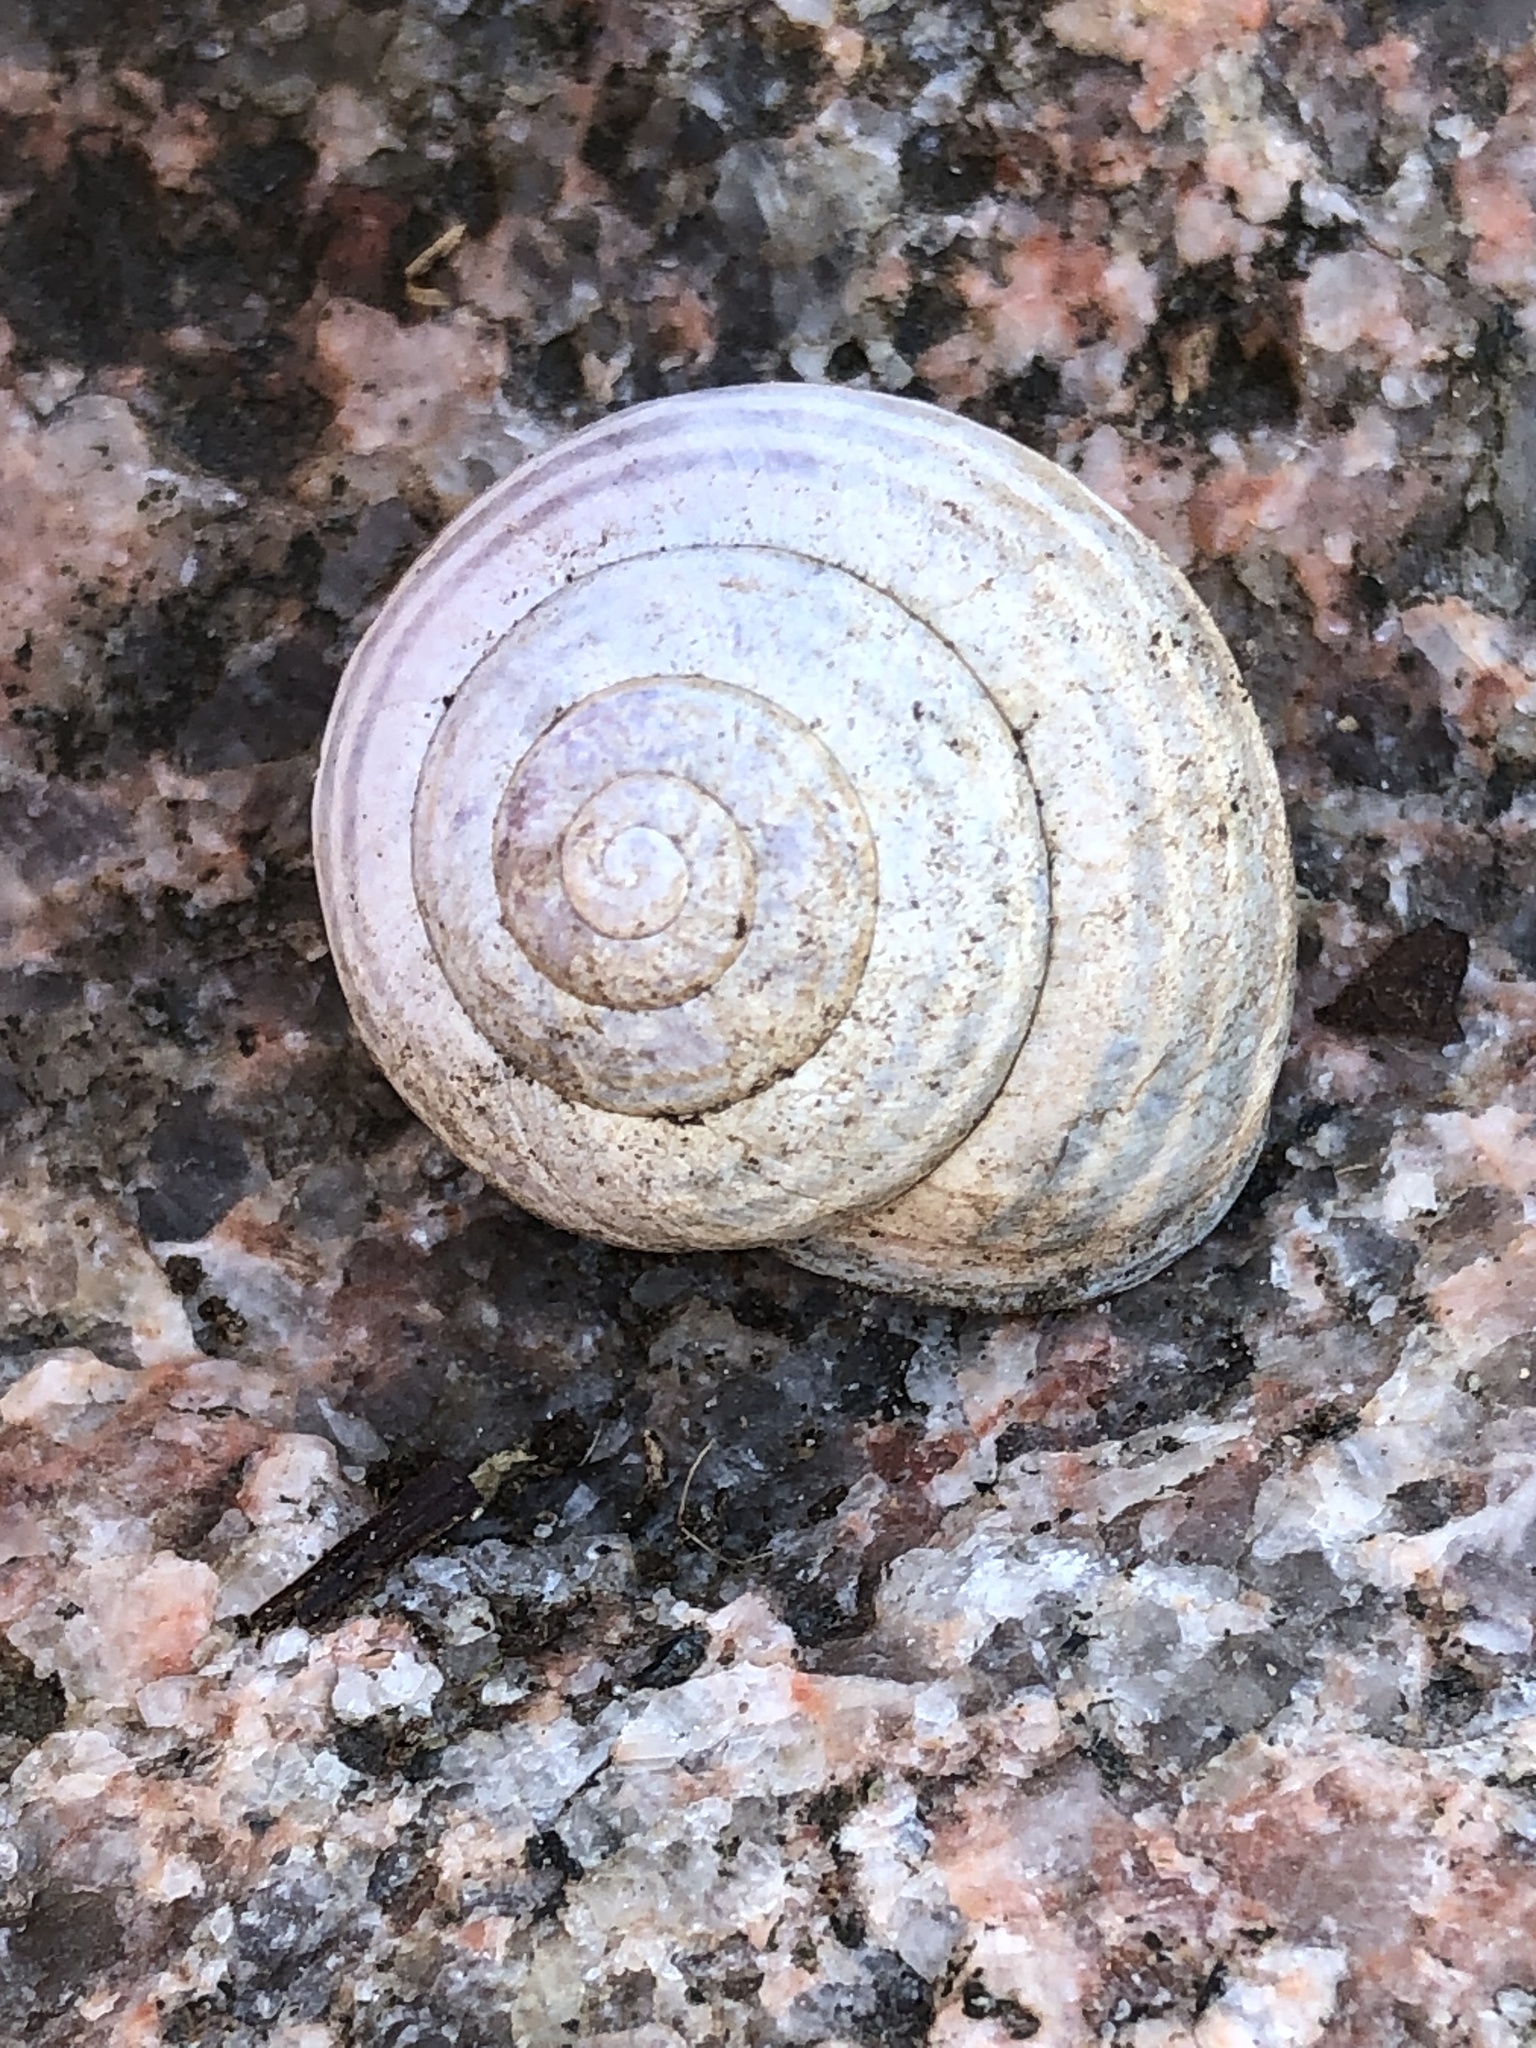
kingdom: Animalia
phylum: Mollusca
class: Gastropoda
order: Stylommatophora
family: Helicidae
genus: Cepaea
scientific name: Cepaea nemoralis
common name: Grovesnail
